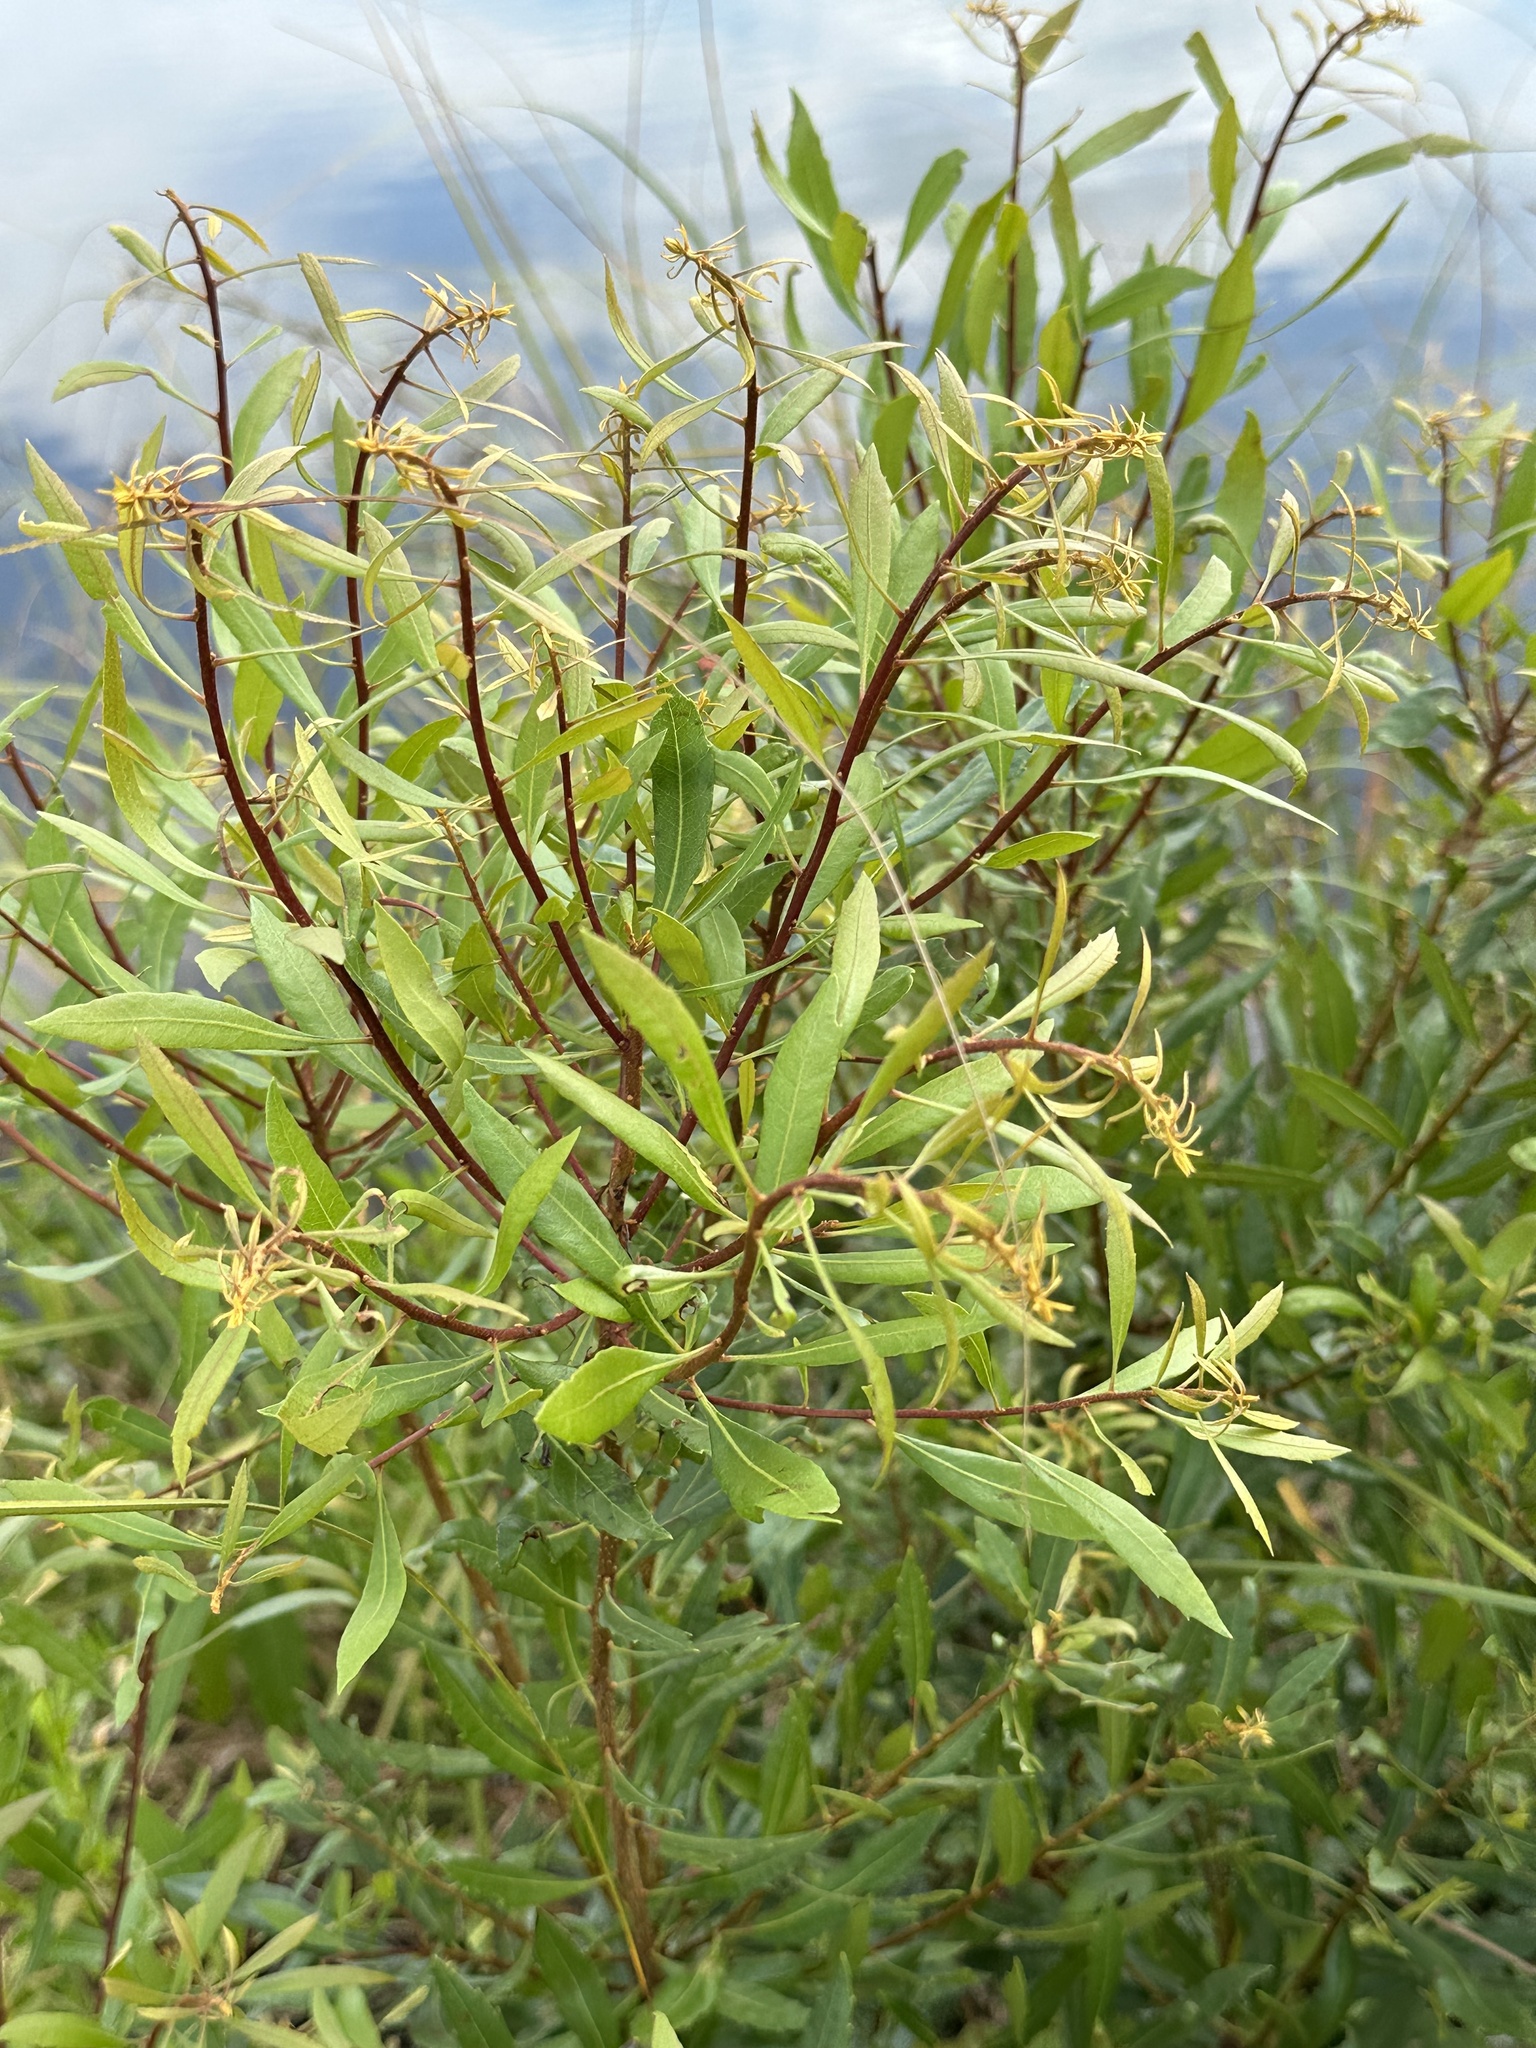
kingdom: Plantae
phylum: Tracheophyta
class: Magnoliopsida
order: Fagales
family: Myricaceae
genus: Morella
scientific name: Morella cerifera
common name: Wax myrtle
